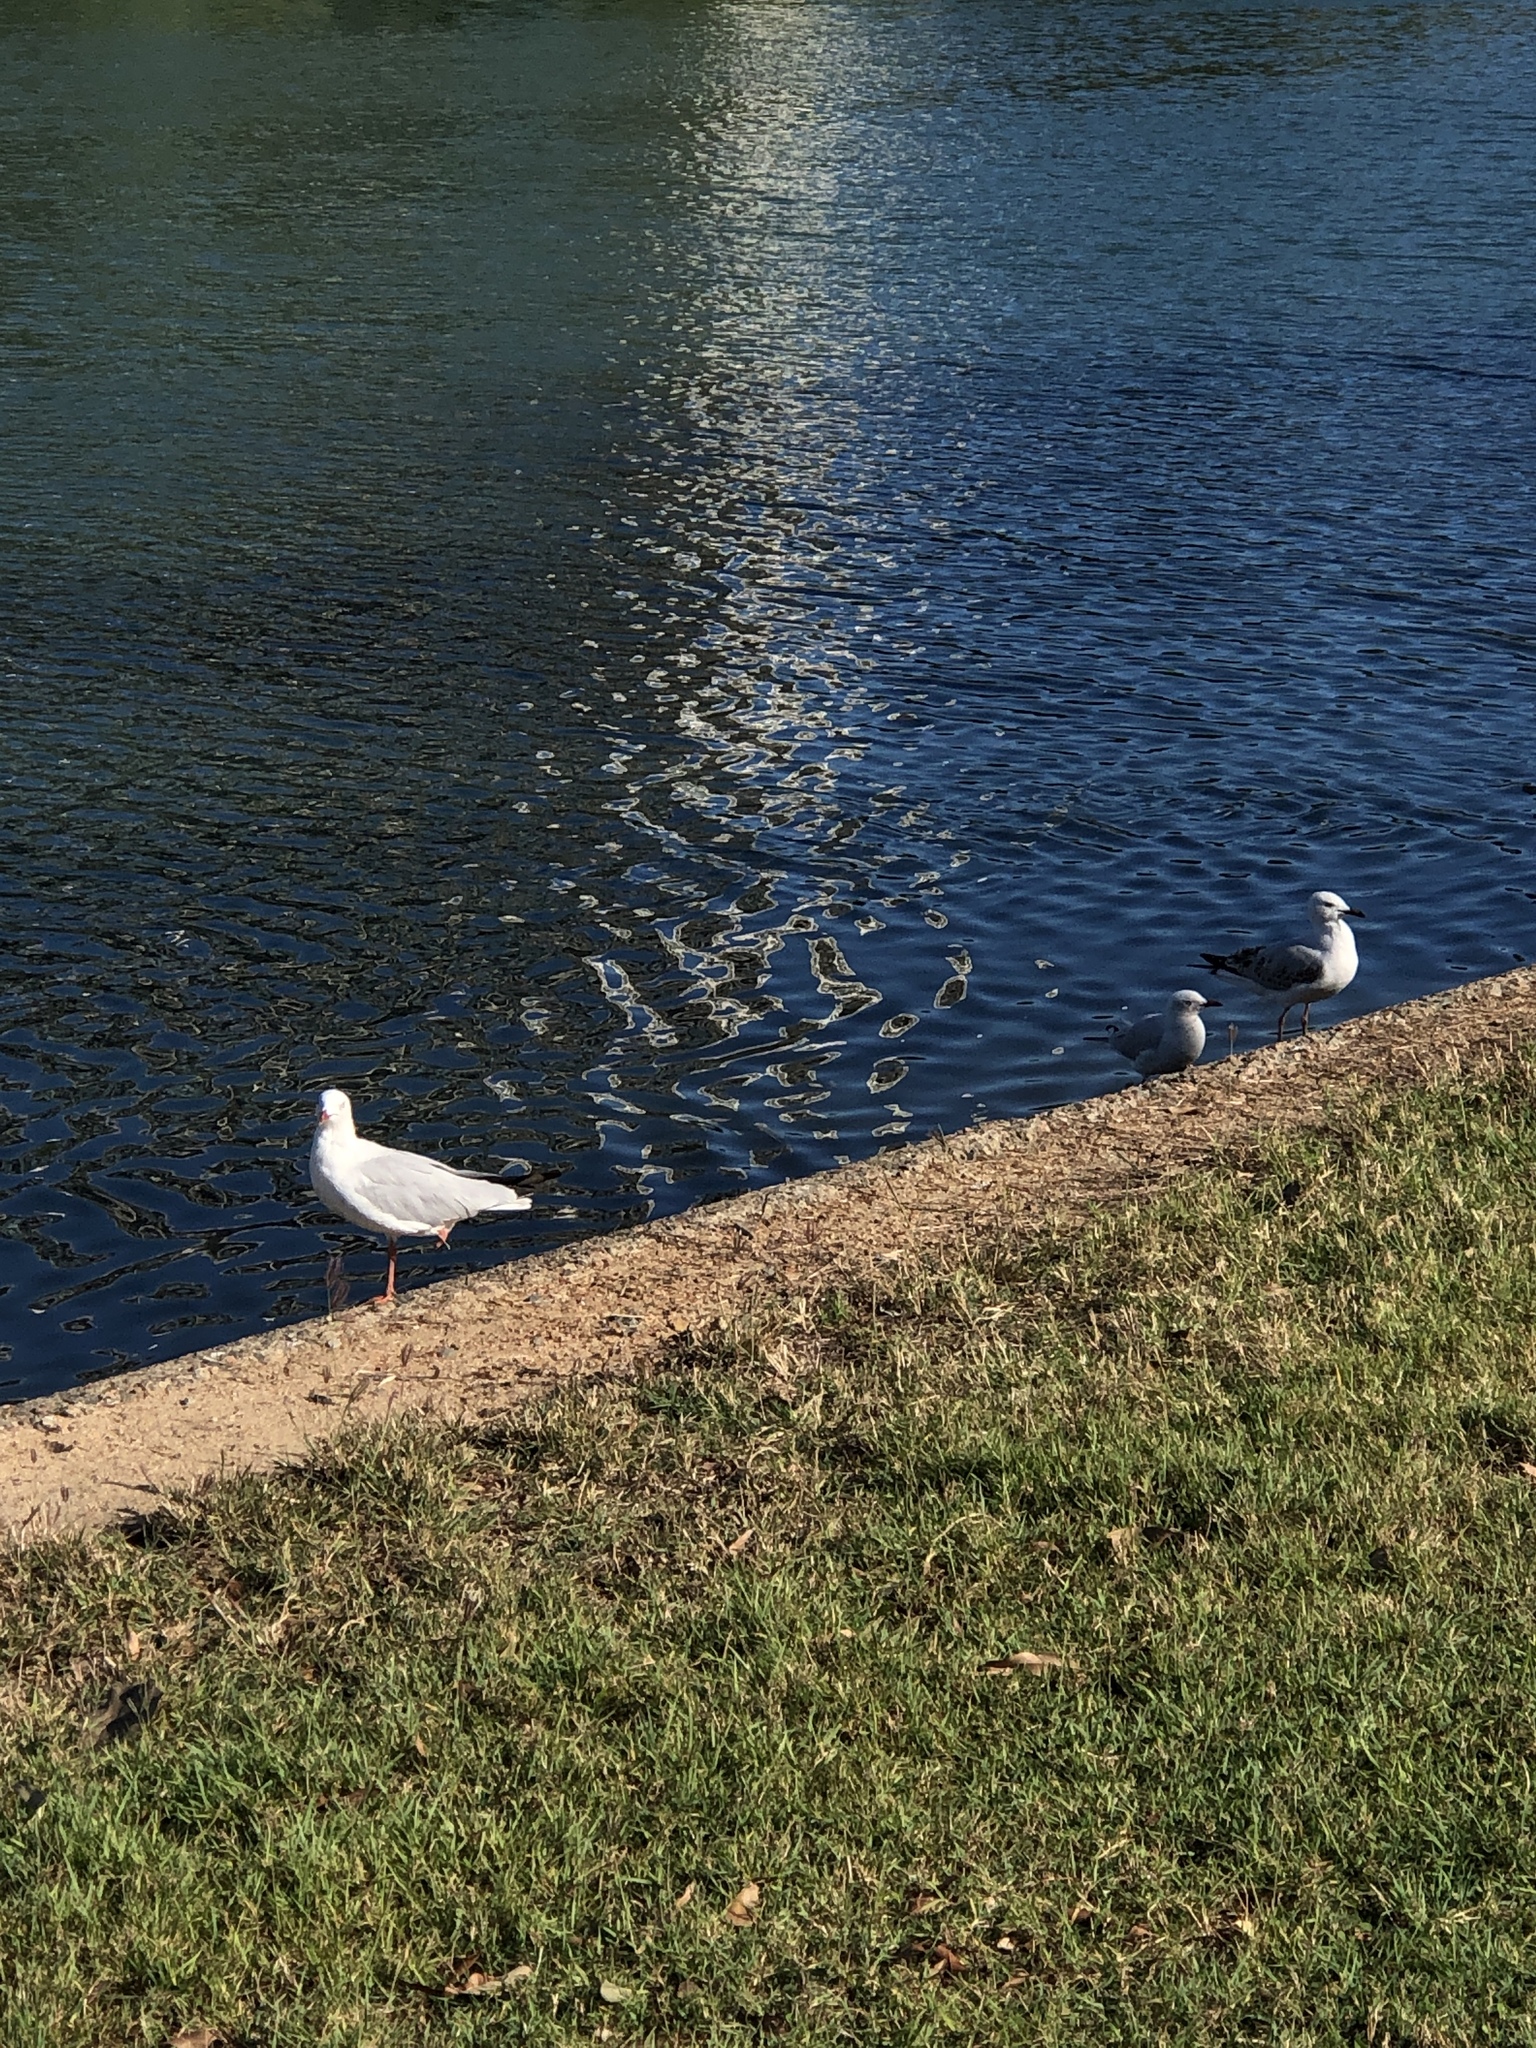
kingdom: Animalia
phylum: Chordata
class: Aves
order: Charadriiformes
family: Laridae
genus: Chroicocephalus
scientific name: Chroicocephalus novaehollandiae
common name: Silver gull
